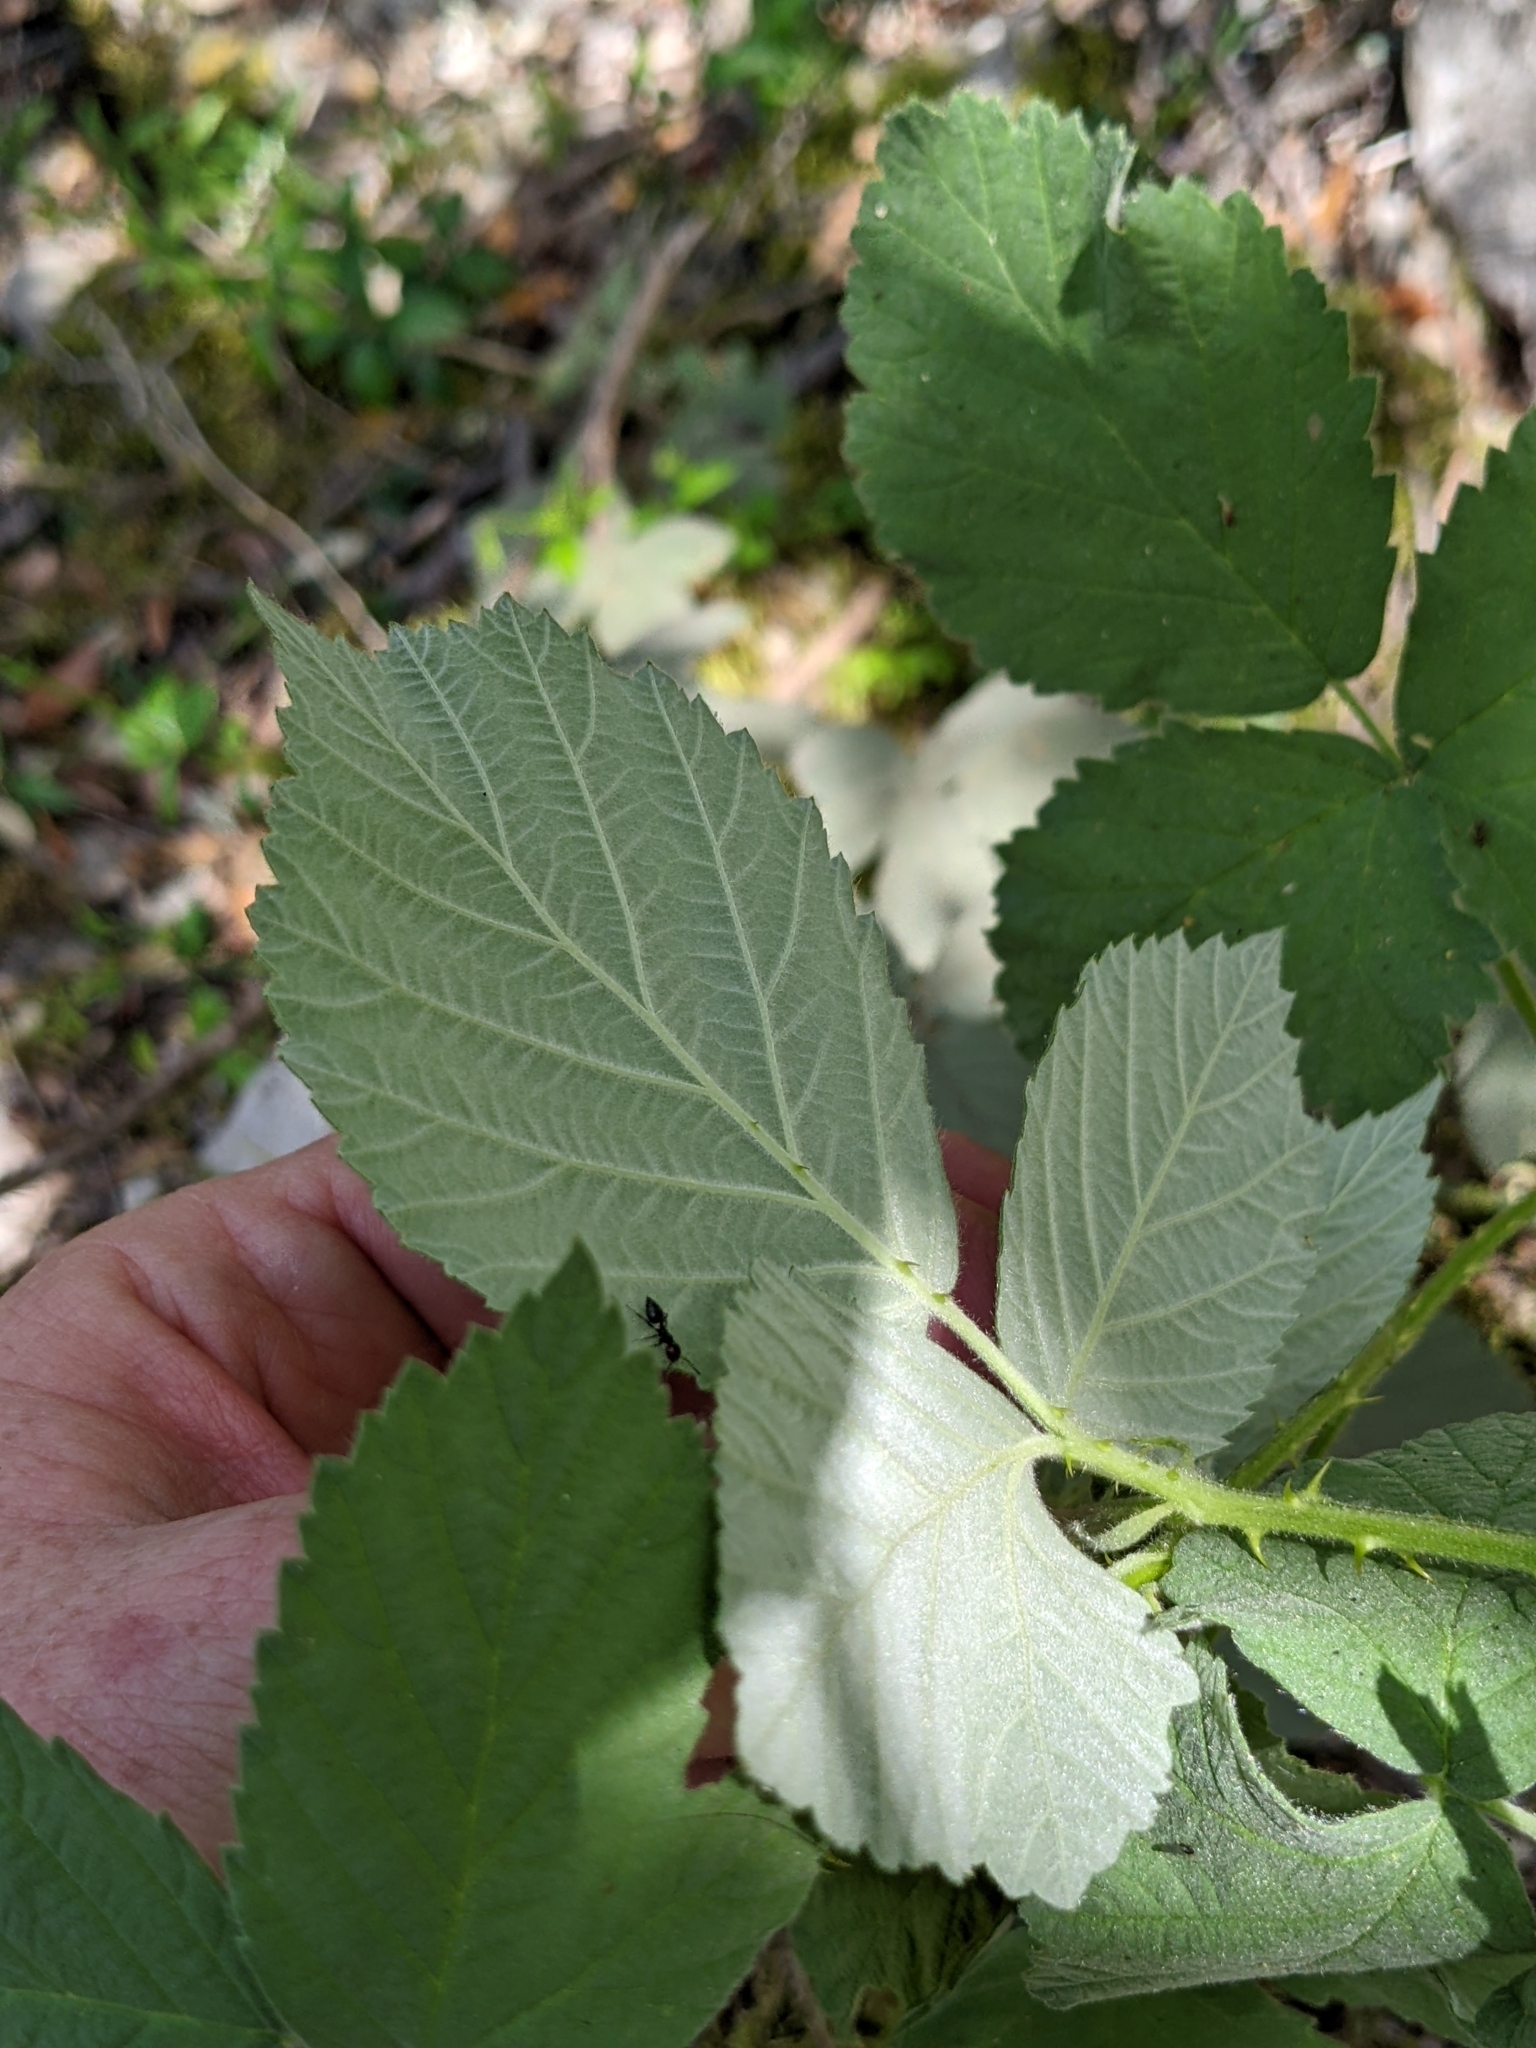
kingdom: Plantae
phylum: Tracheophyta
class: Magnoliopsida
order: Rosales
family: Rosaceae
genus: Rubus
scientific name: Rubus canescens
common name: Wooly blackberry
